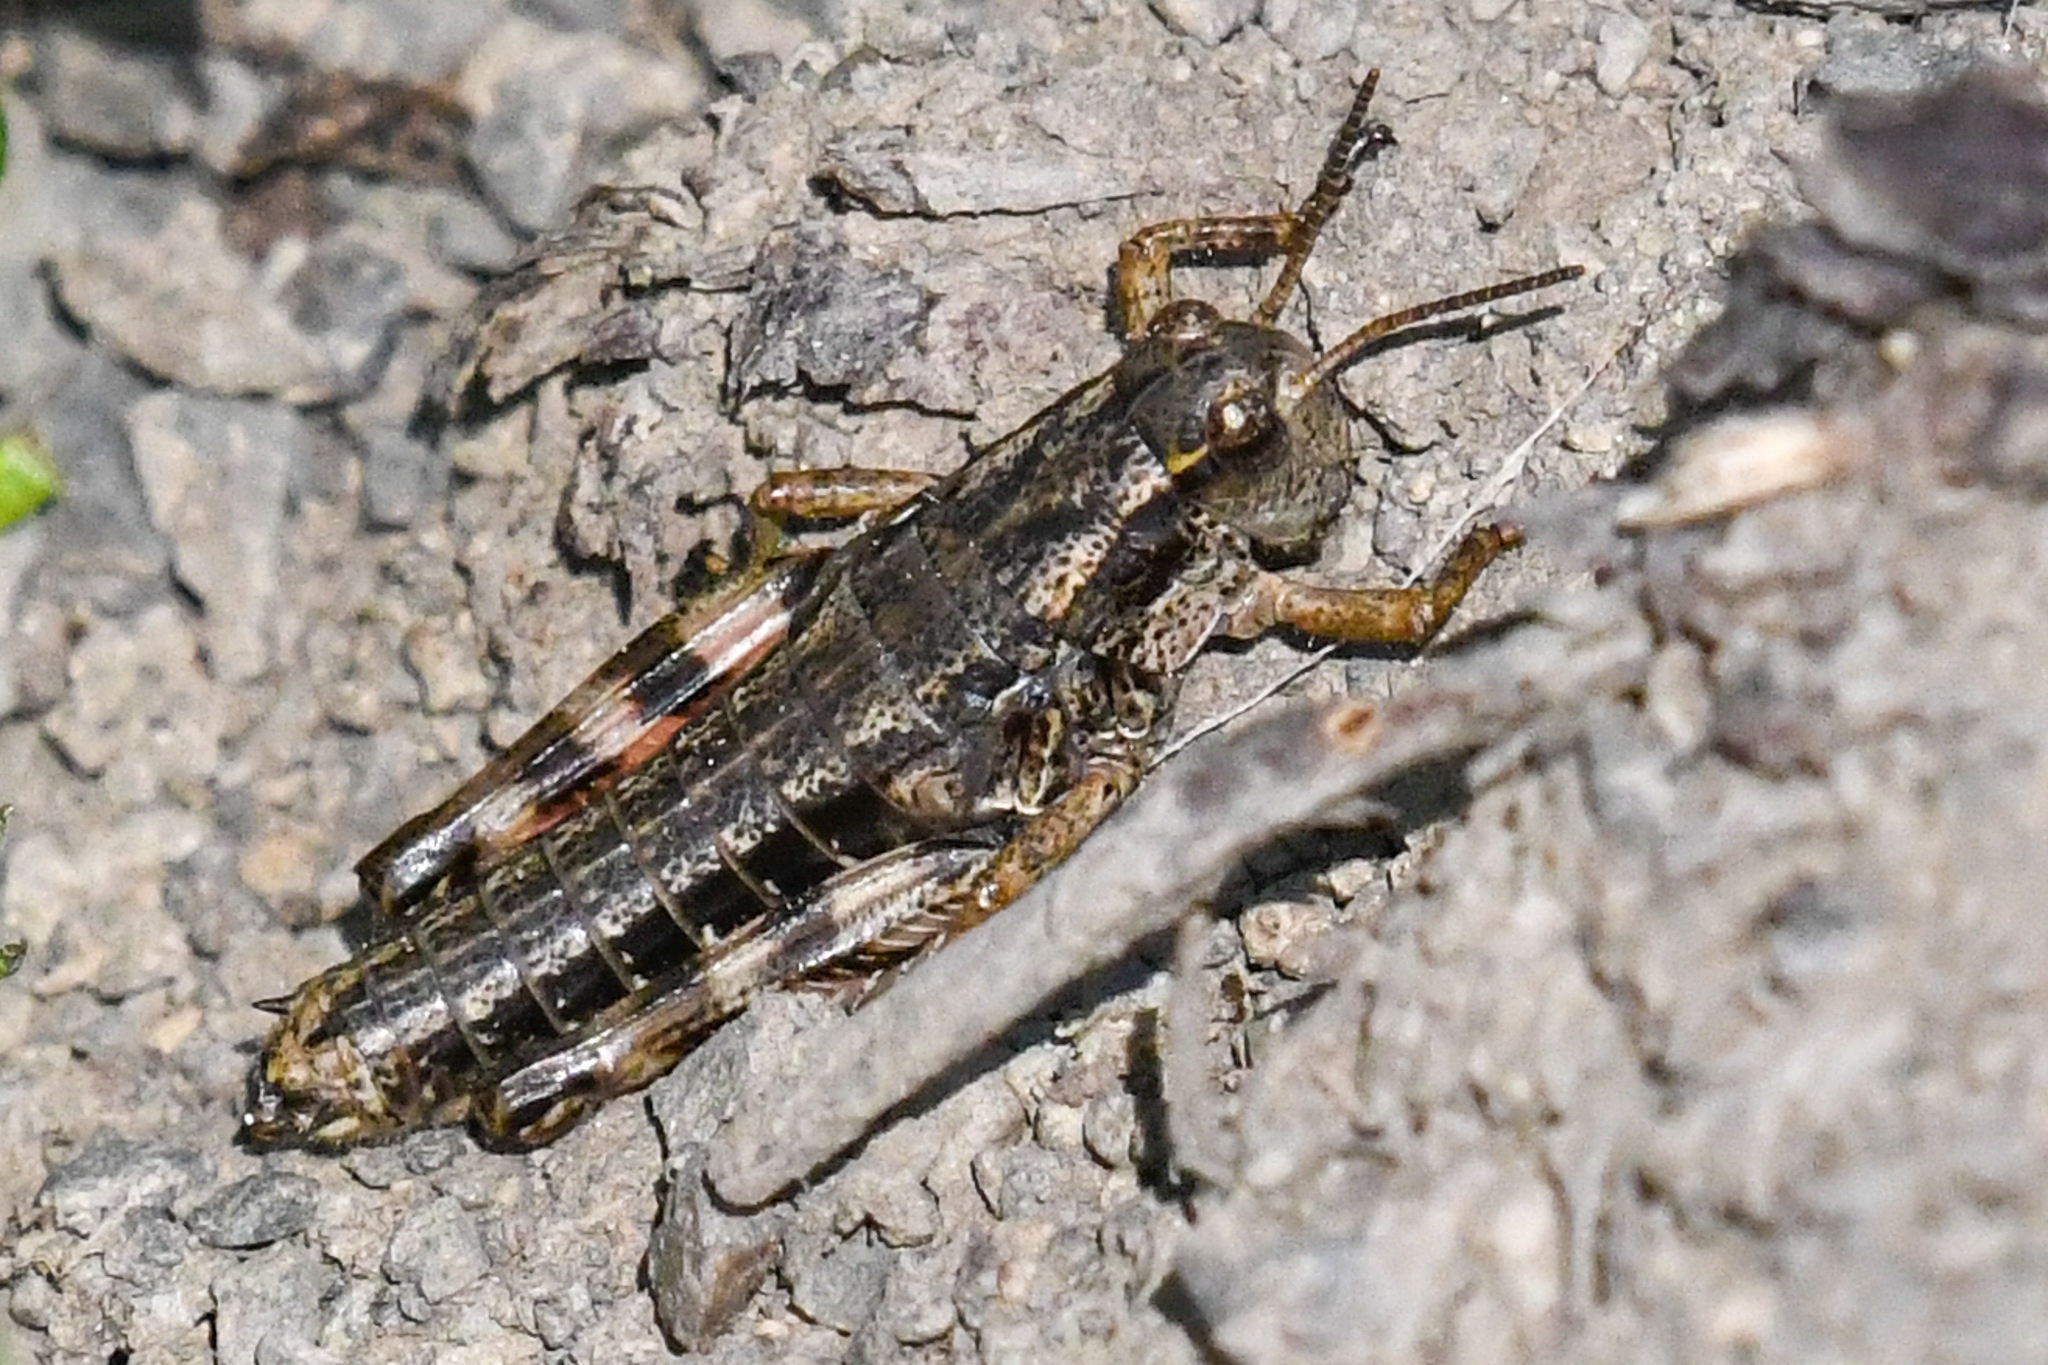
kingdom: Animalia
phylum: Arthropoda
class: Insecta
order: Orthoptera
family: Acrididae
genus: Buckellacris
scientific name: Buckellacris chilcotinae
